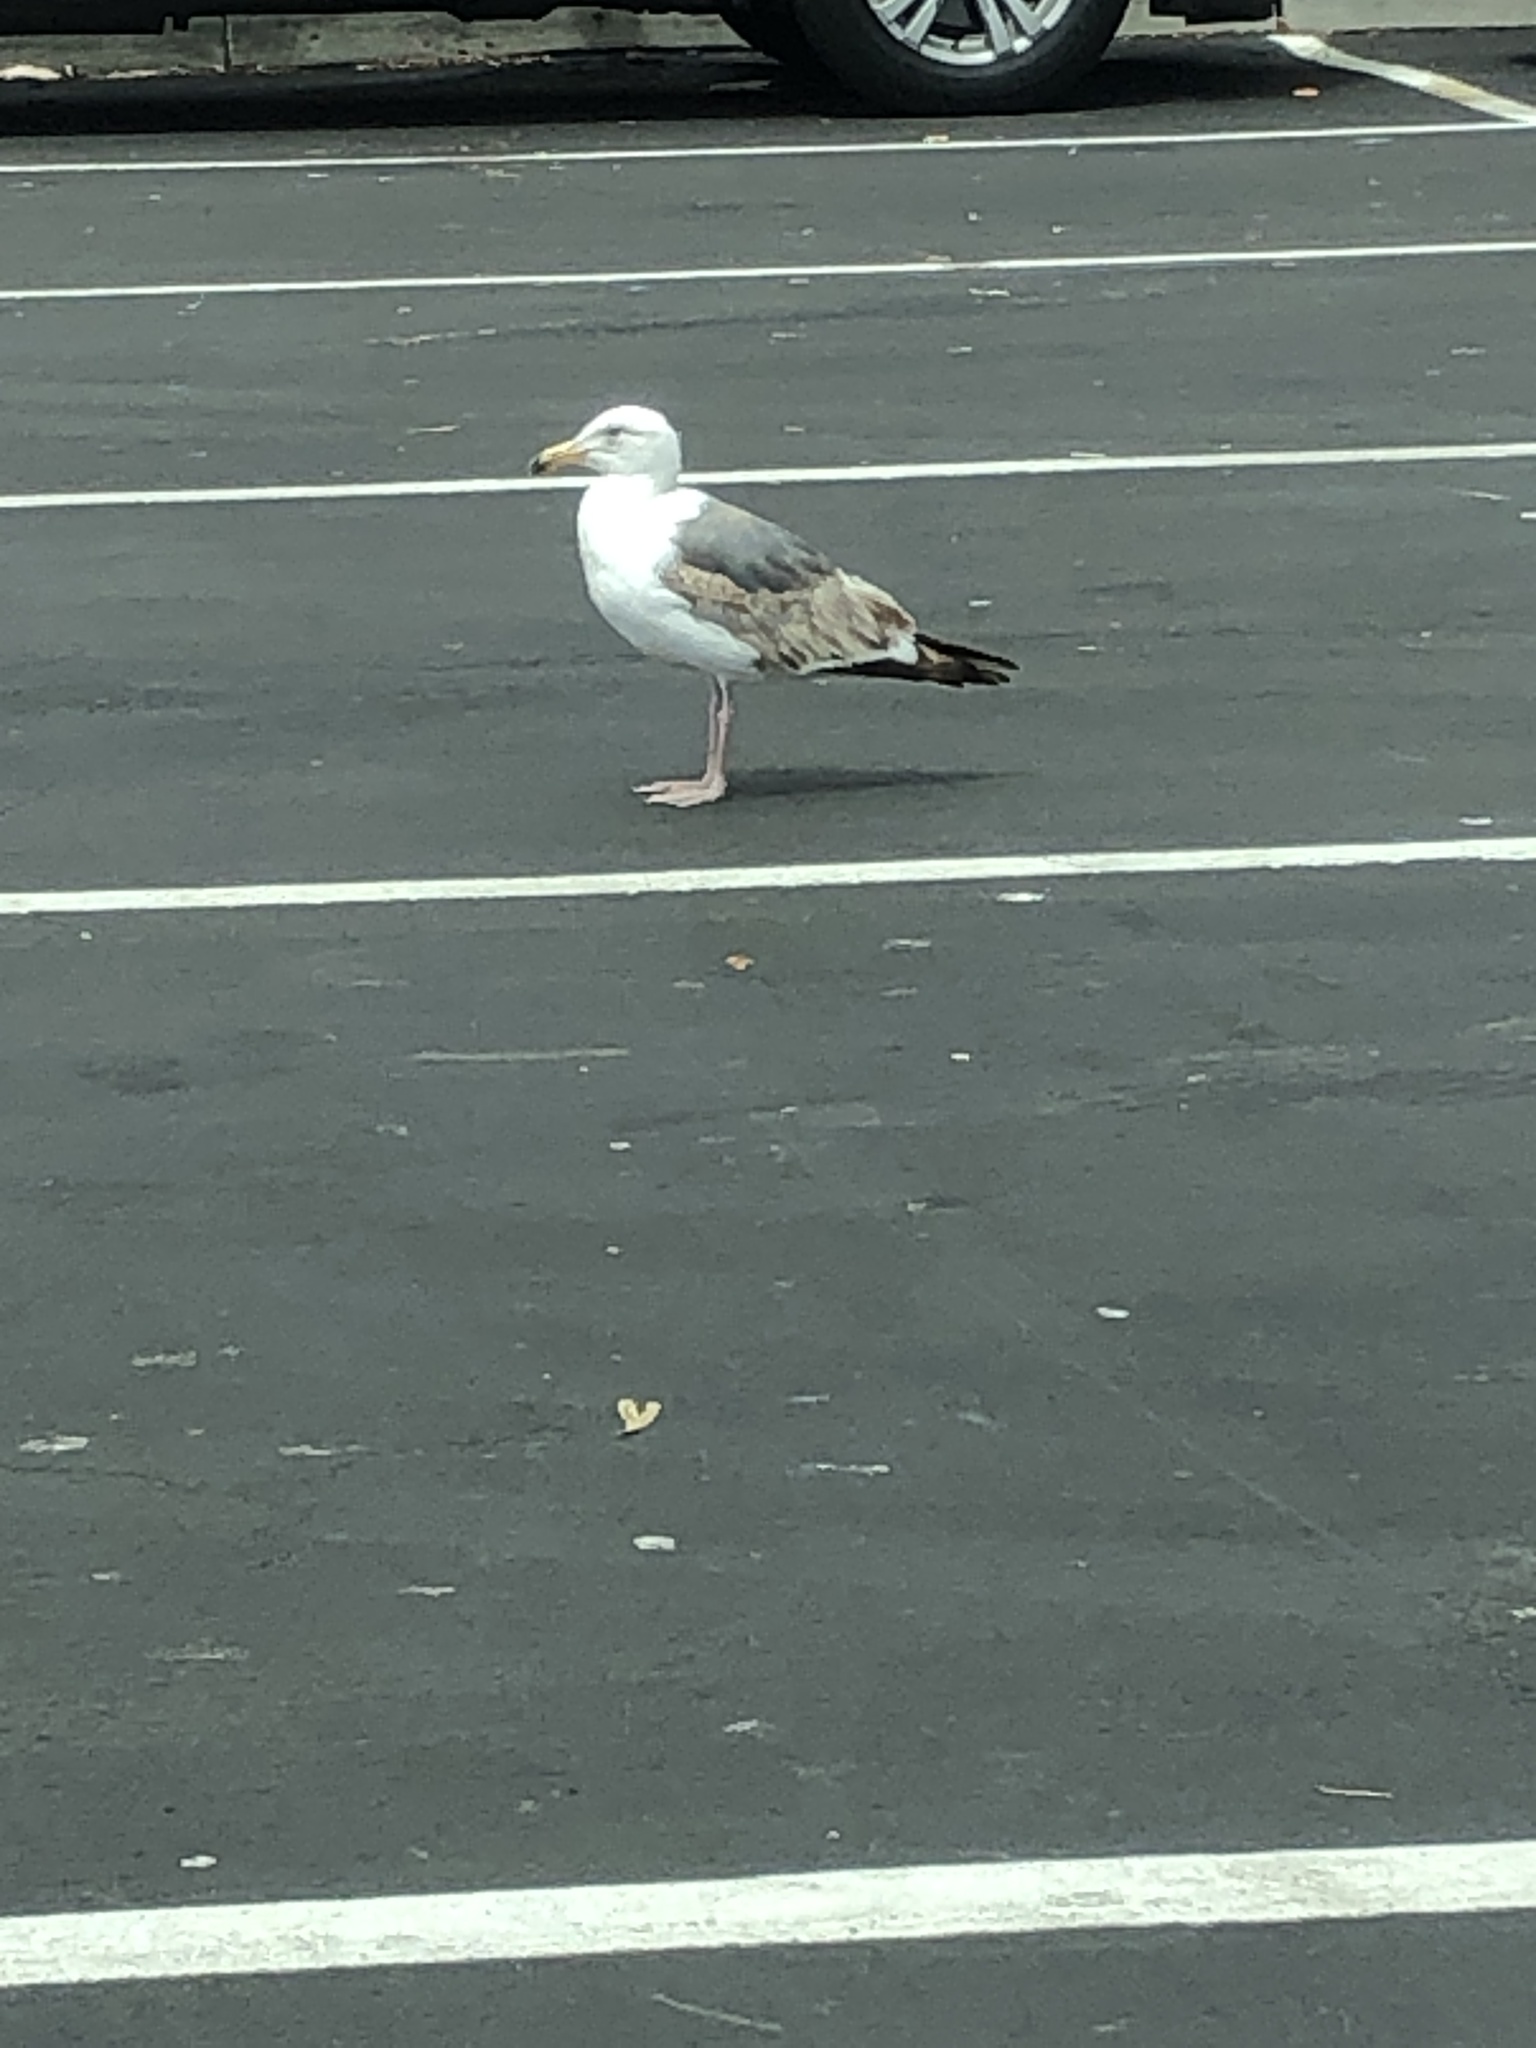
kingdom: Animalia
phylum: Chordata
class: Aves
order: Charadriiformes
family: Laridae
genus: Larus
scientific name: Larus occidentalis
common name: Western gull
